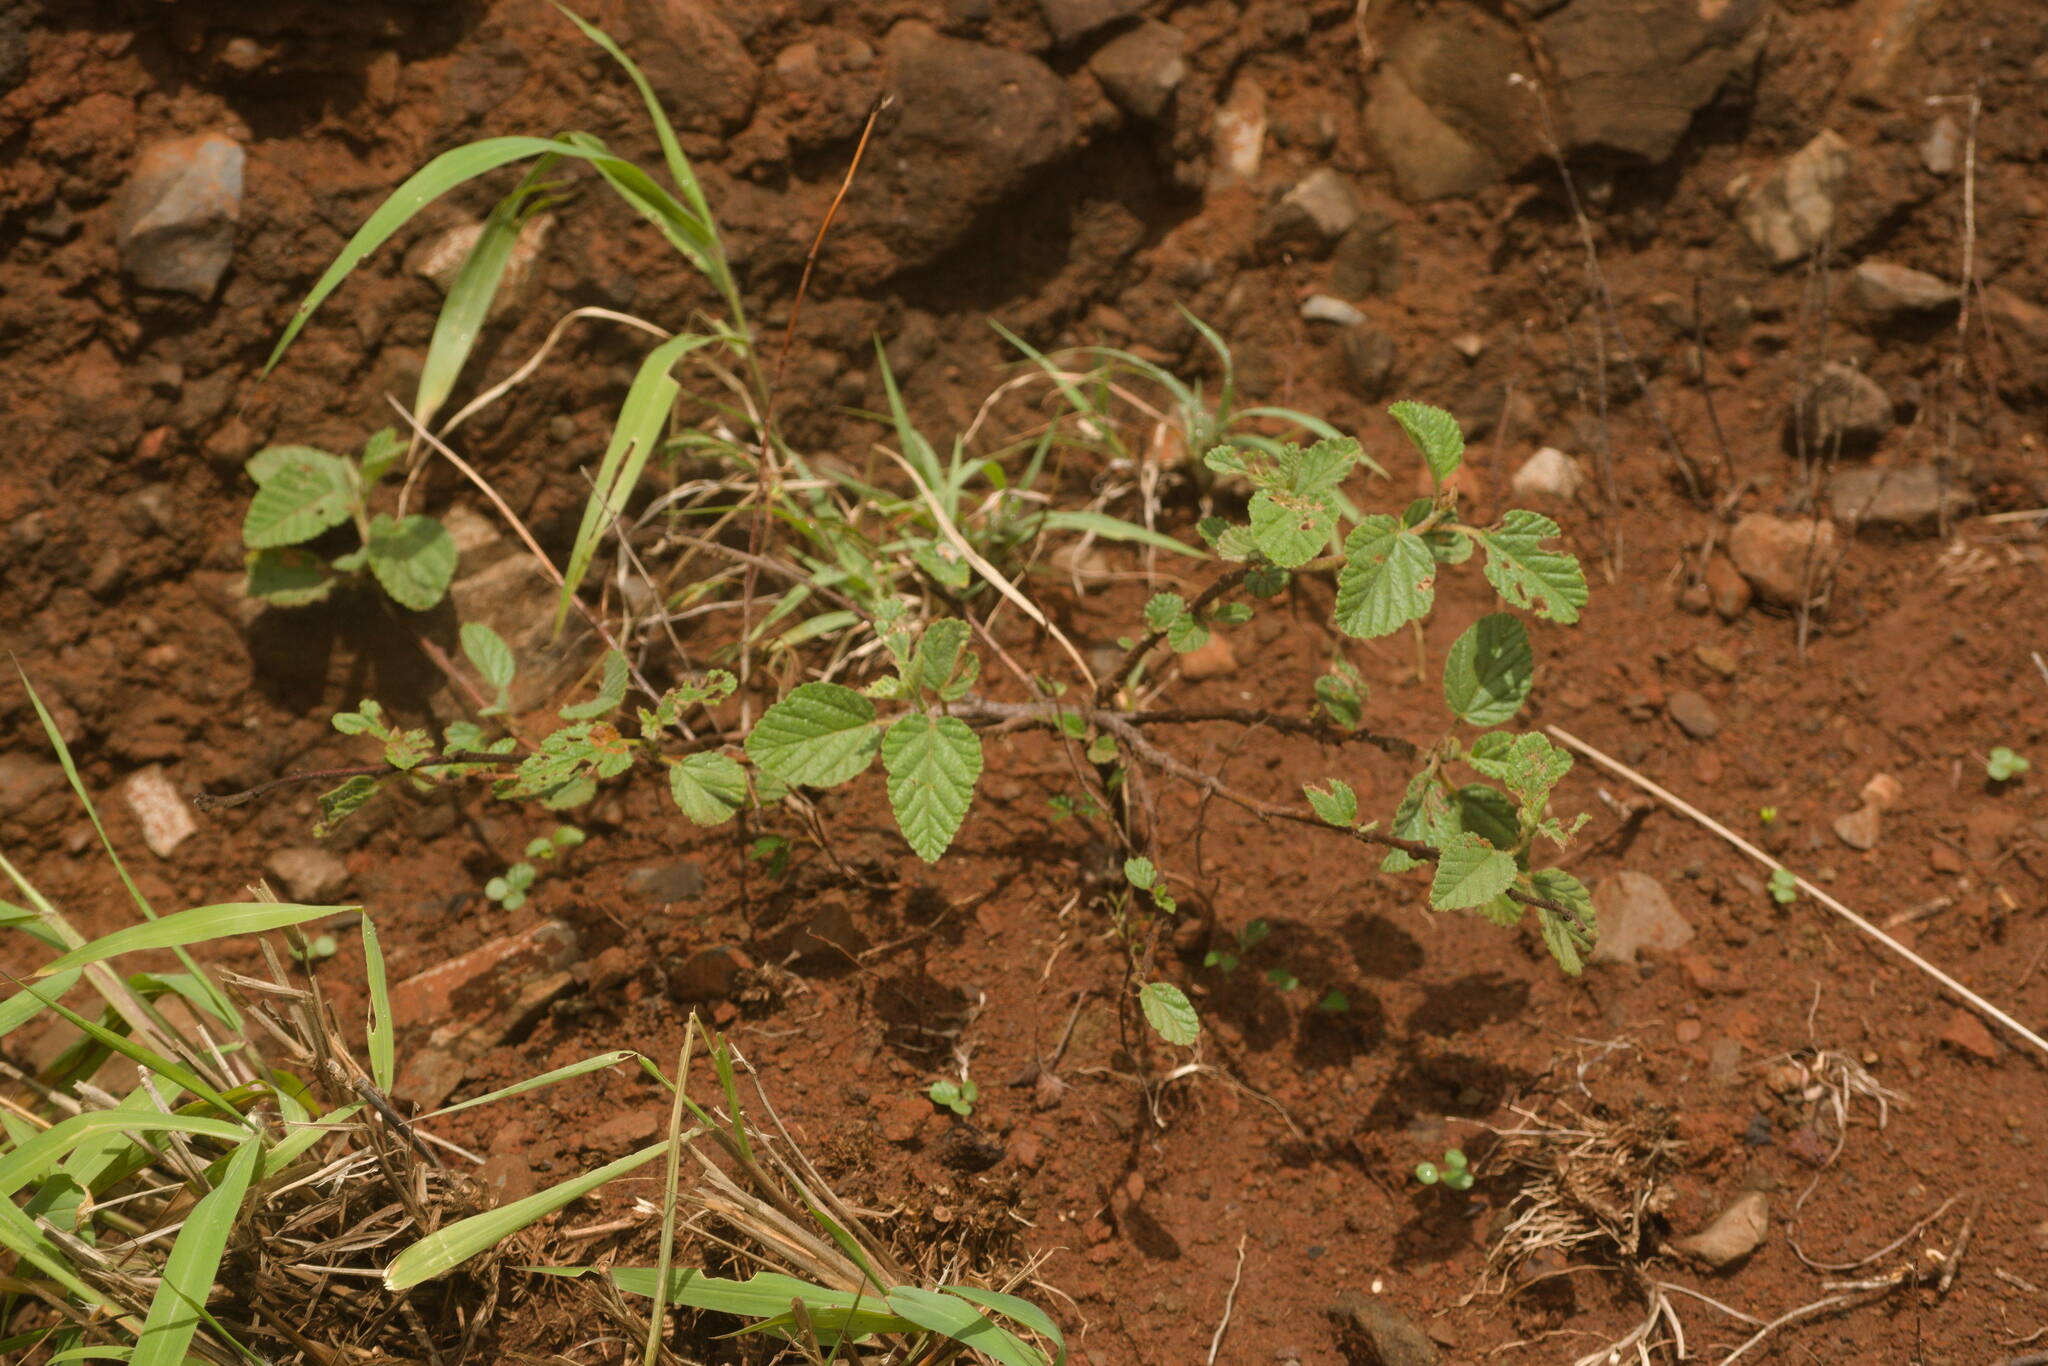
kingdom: Plantae
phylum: Tracheophyta
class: Magnoliopsida
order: Malvales
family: Malvaceae
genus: Waltheria
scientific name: Waltheria indica
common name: Leather-coat
